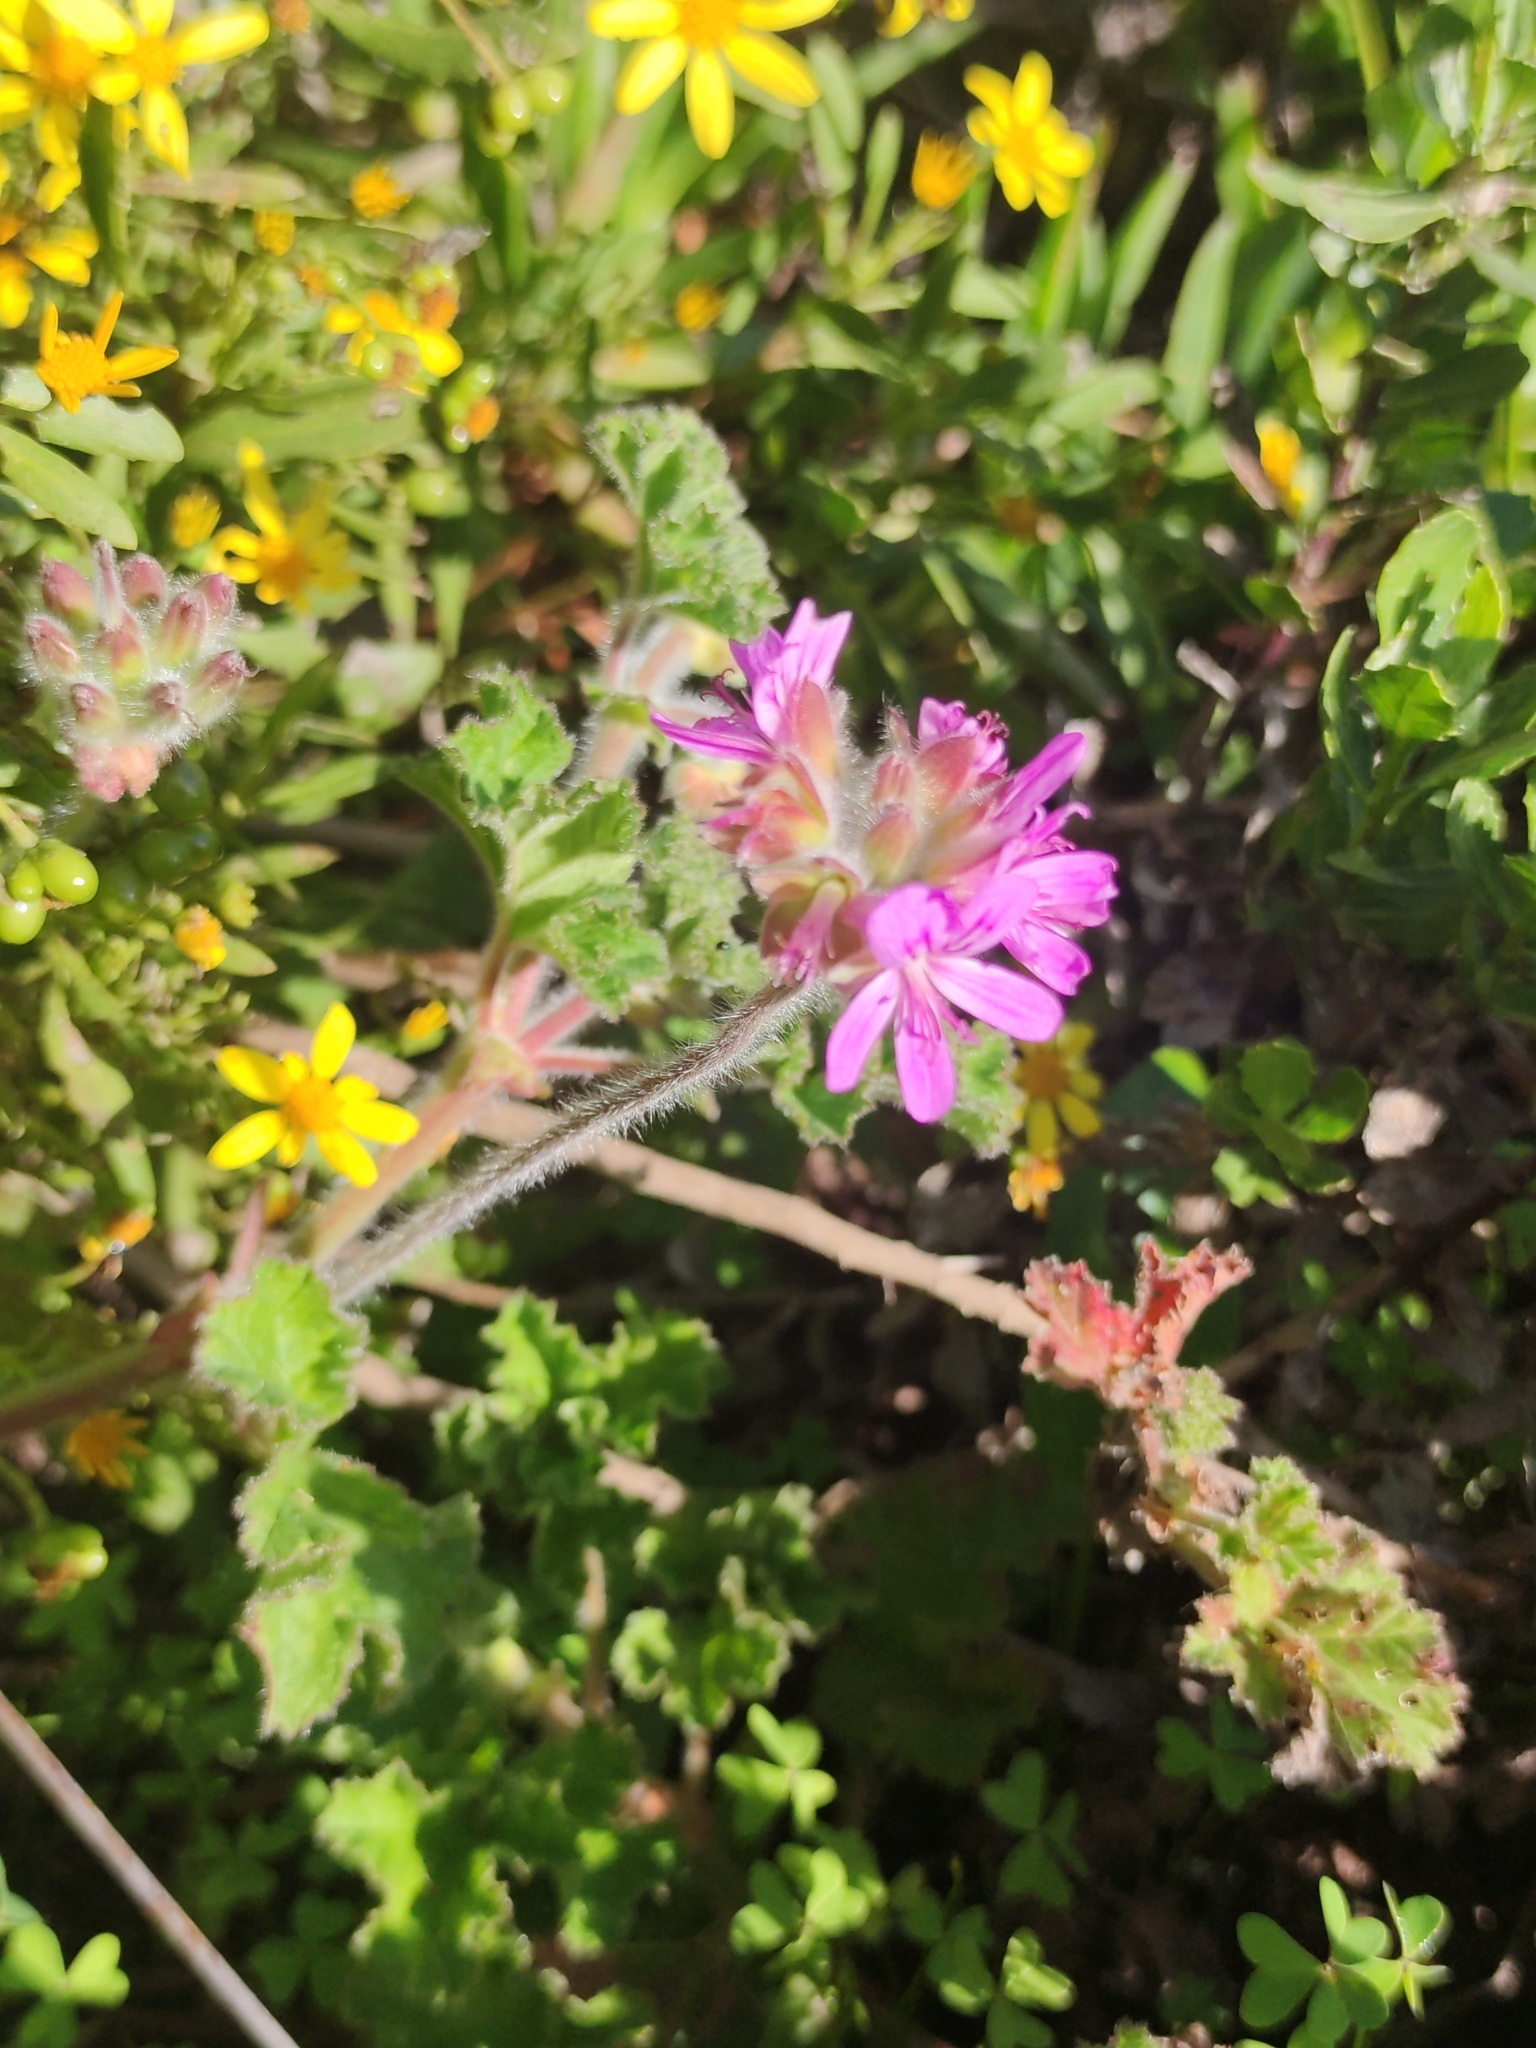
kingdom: Plantae
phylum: Tracheophyta
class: Magnoliopsida
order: Geraniales
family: Geraniaceae
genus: Pelargonium
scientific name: Pelargonium capitatum
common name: Rose scented geranium
